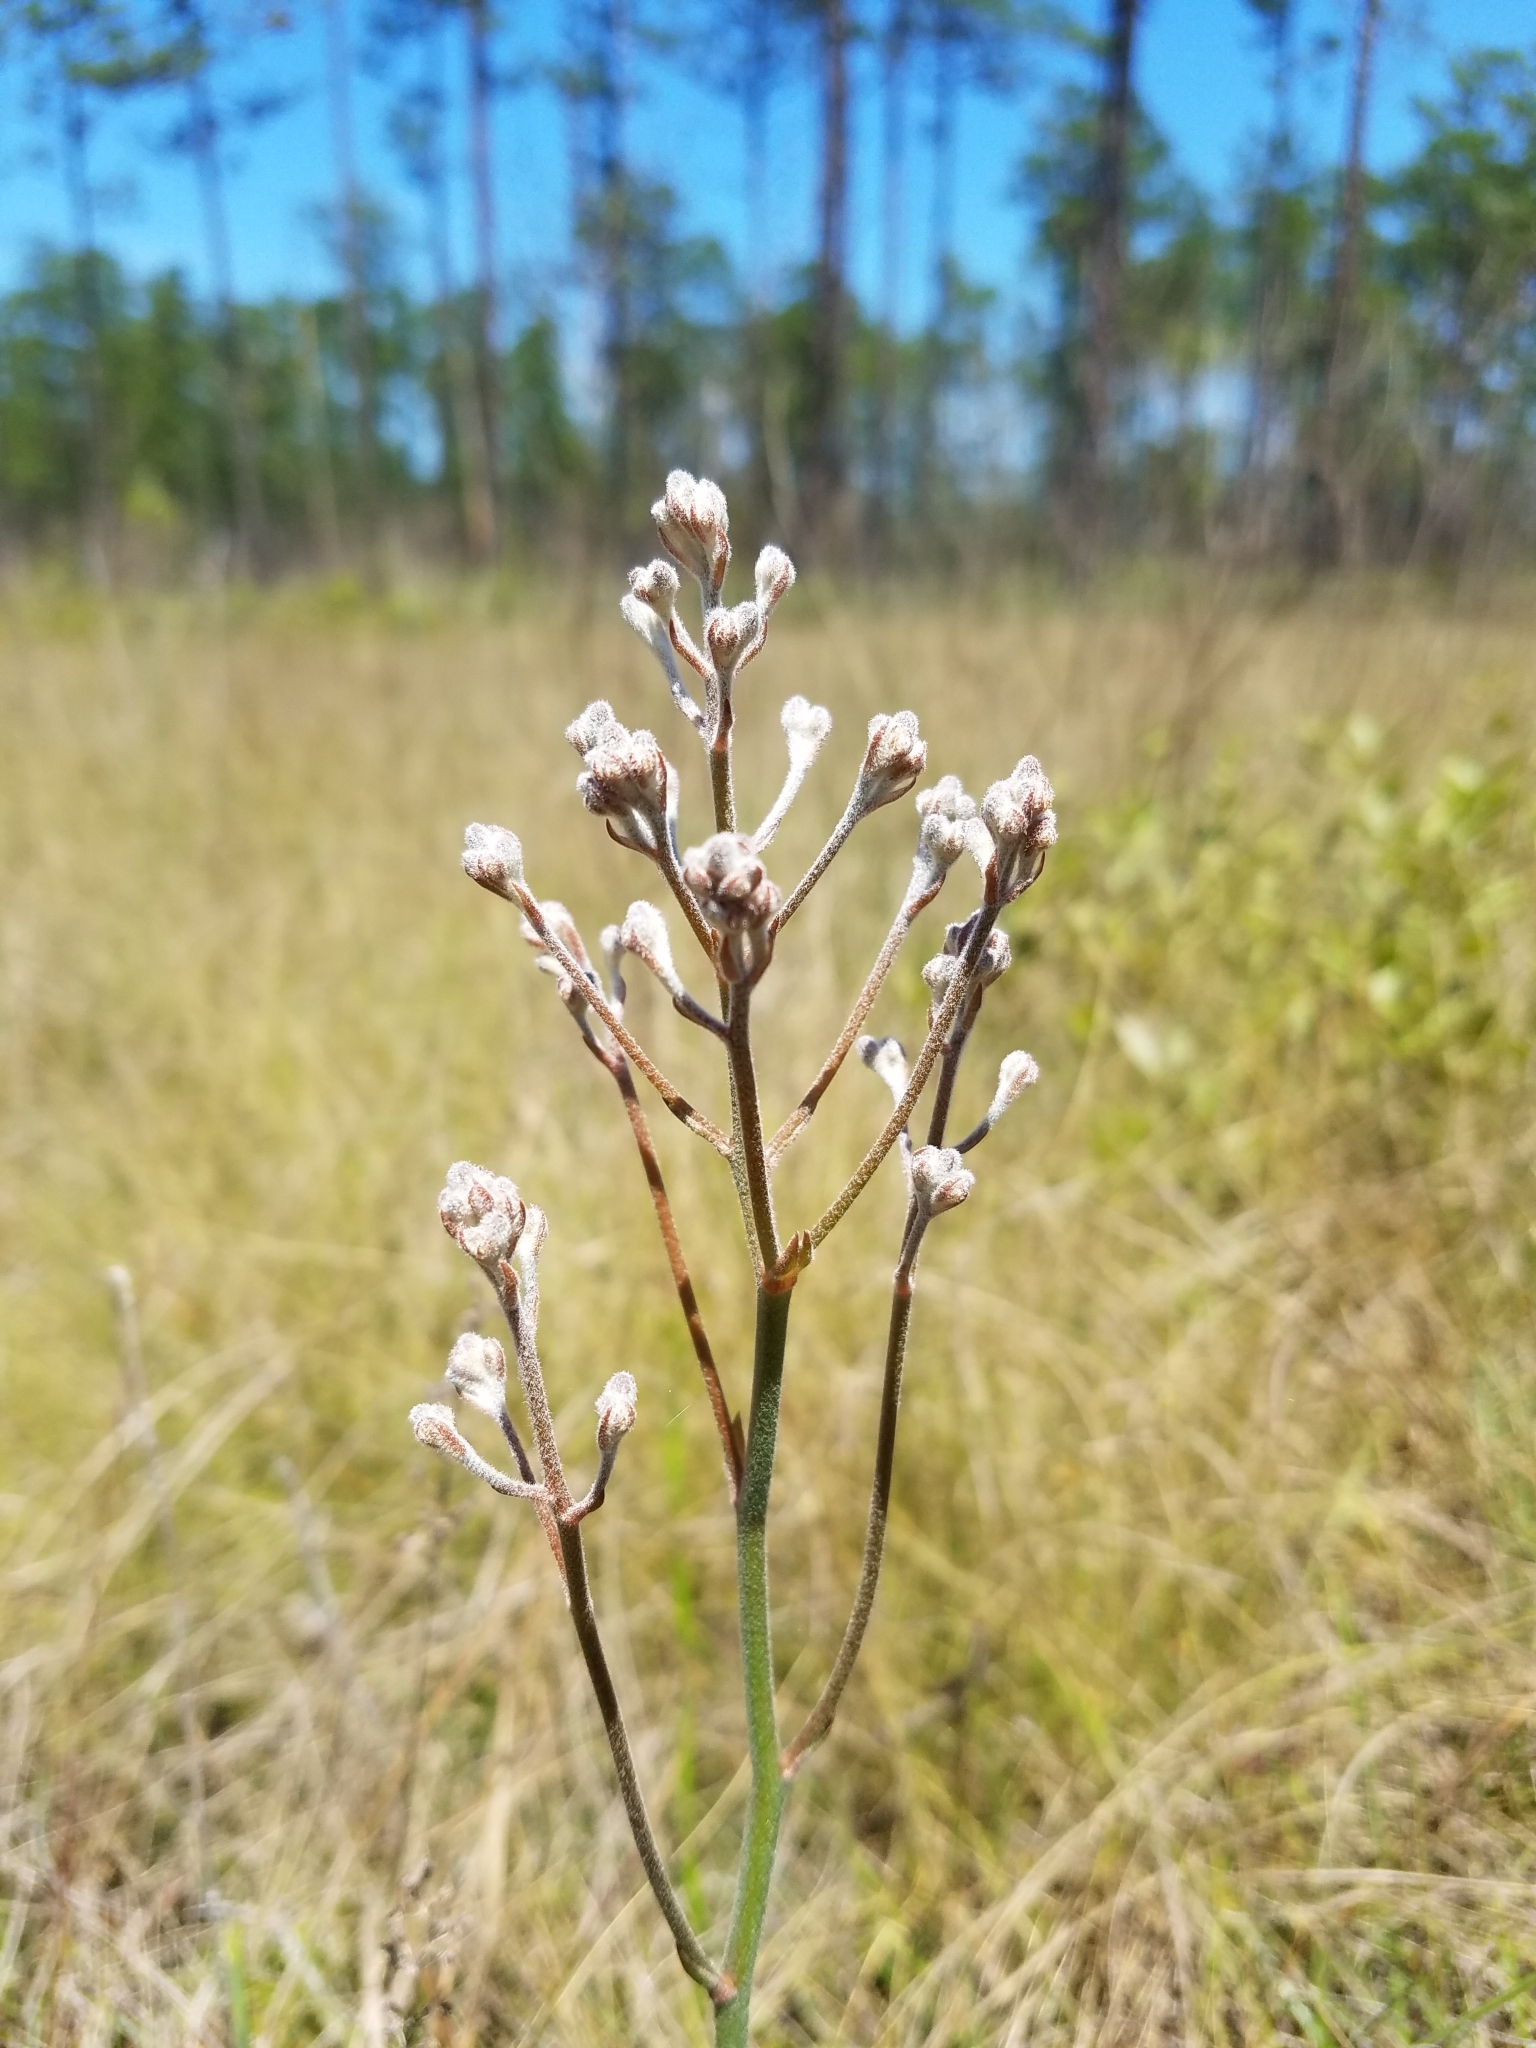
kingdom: Plantae
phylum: Tracheophyta
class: Liliopsida
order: Dioscoreales
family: Nartheciaceae
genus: Lophiola
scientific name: Lophiola aurea
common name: Golden-crest
